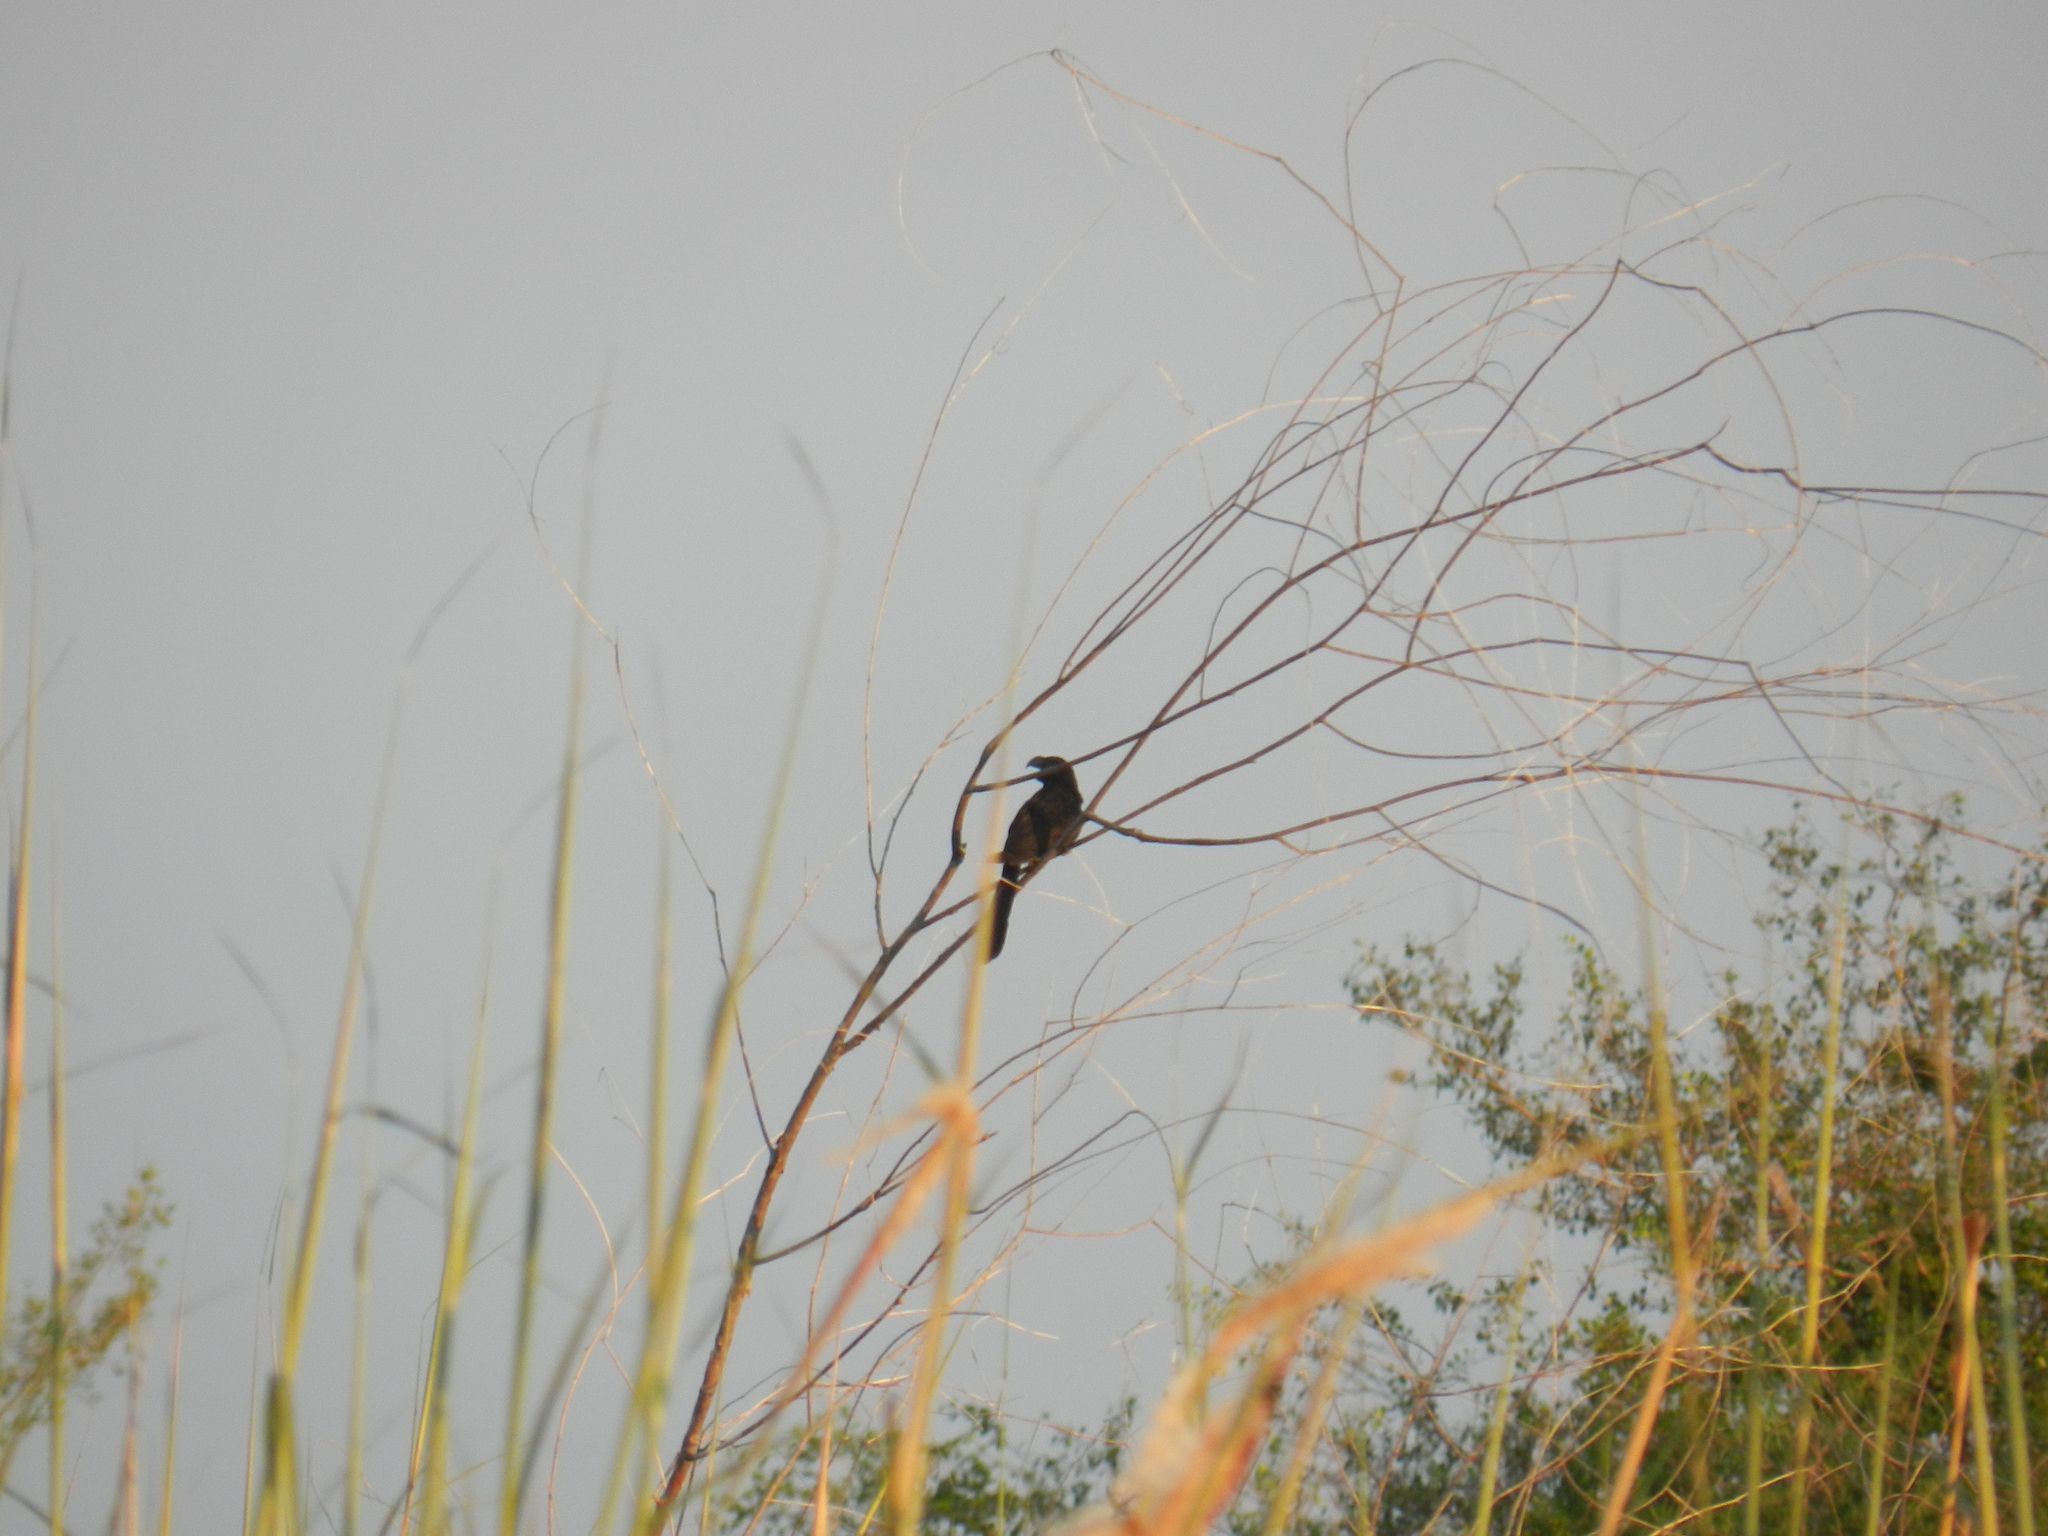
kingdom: Animalia
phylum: Chordata
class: Aves
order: Cuculiformes
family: Cuculidae
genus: Crotophaga
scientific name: Crotophaga ani
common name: Smooth-billed ani
